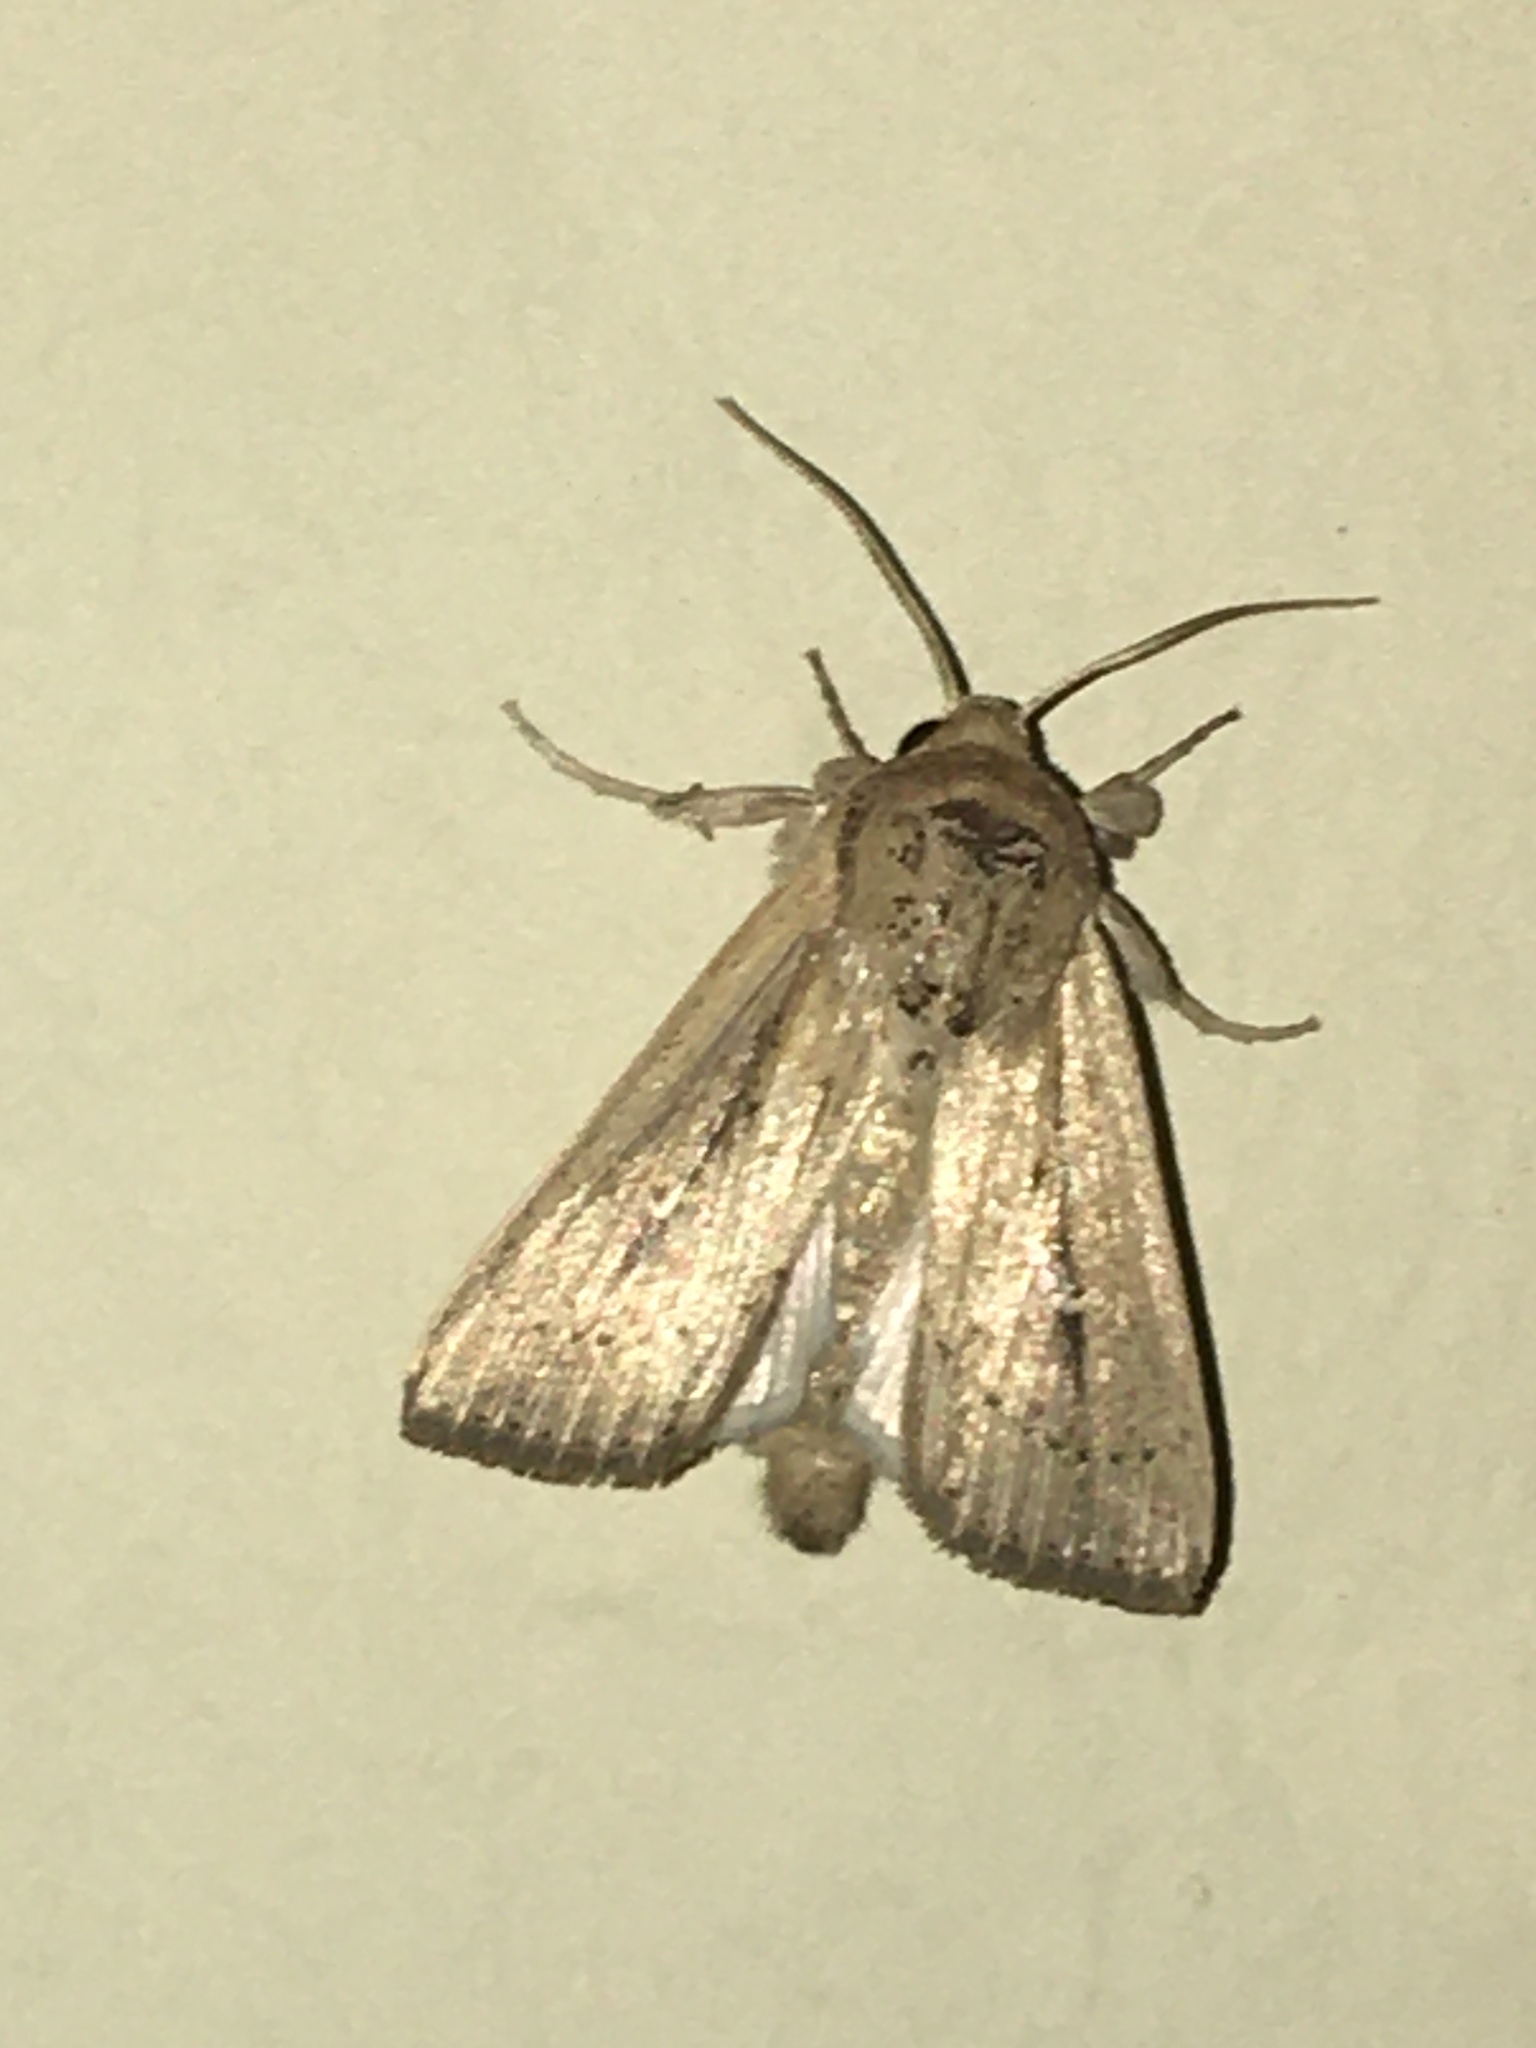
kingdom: Animalia
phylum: Arthropoda
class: Insecta
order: Lepidoptera
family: Noctuidae
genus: Leucania
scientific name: Leucania incognita
